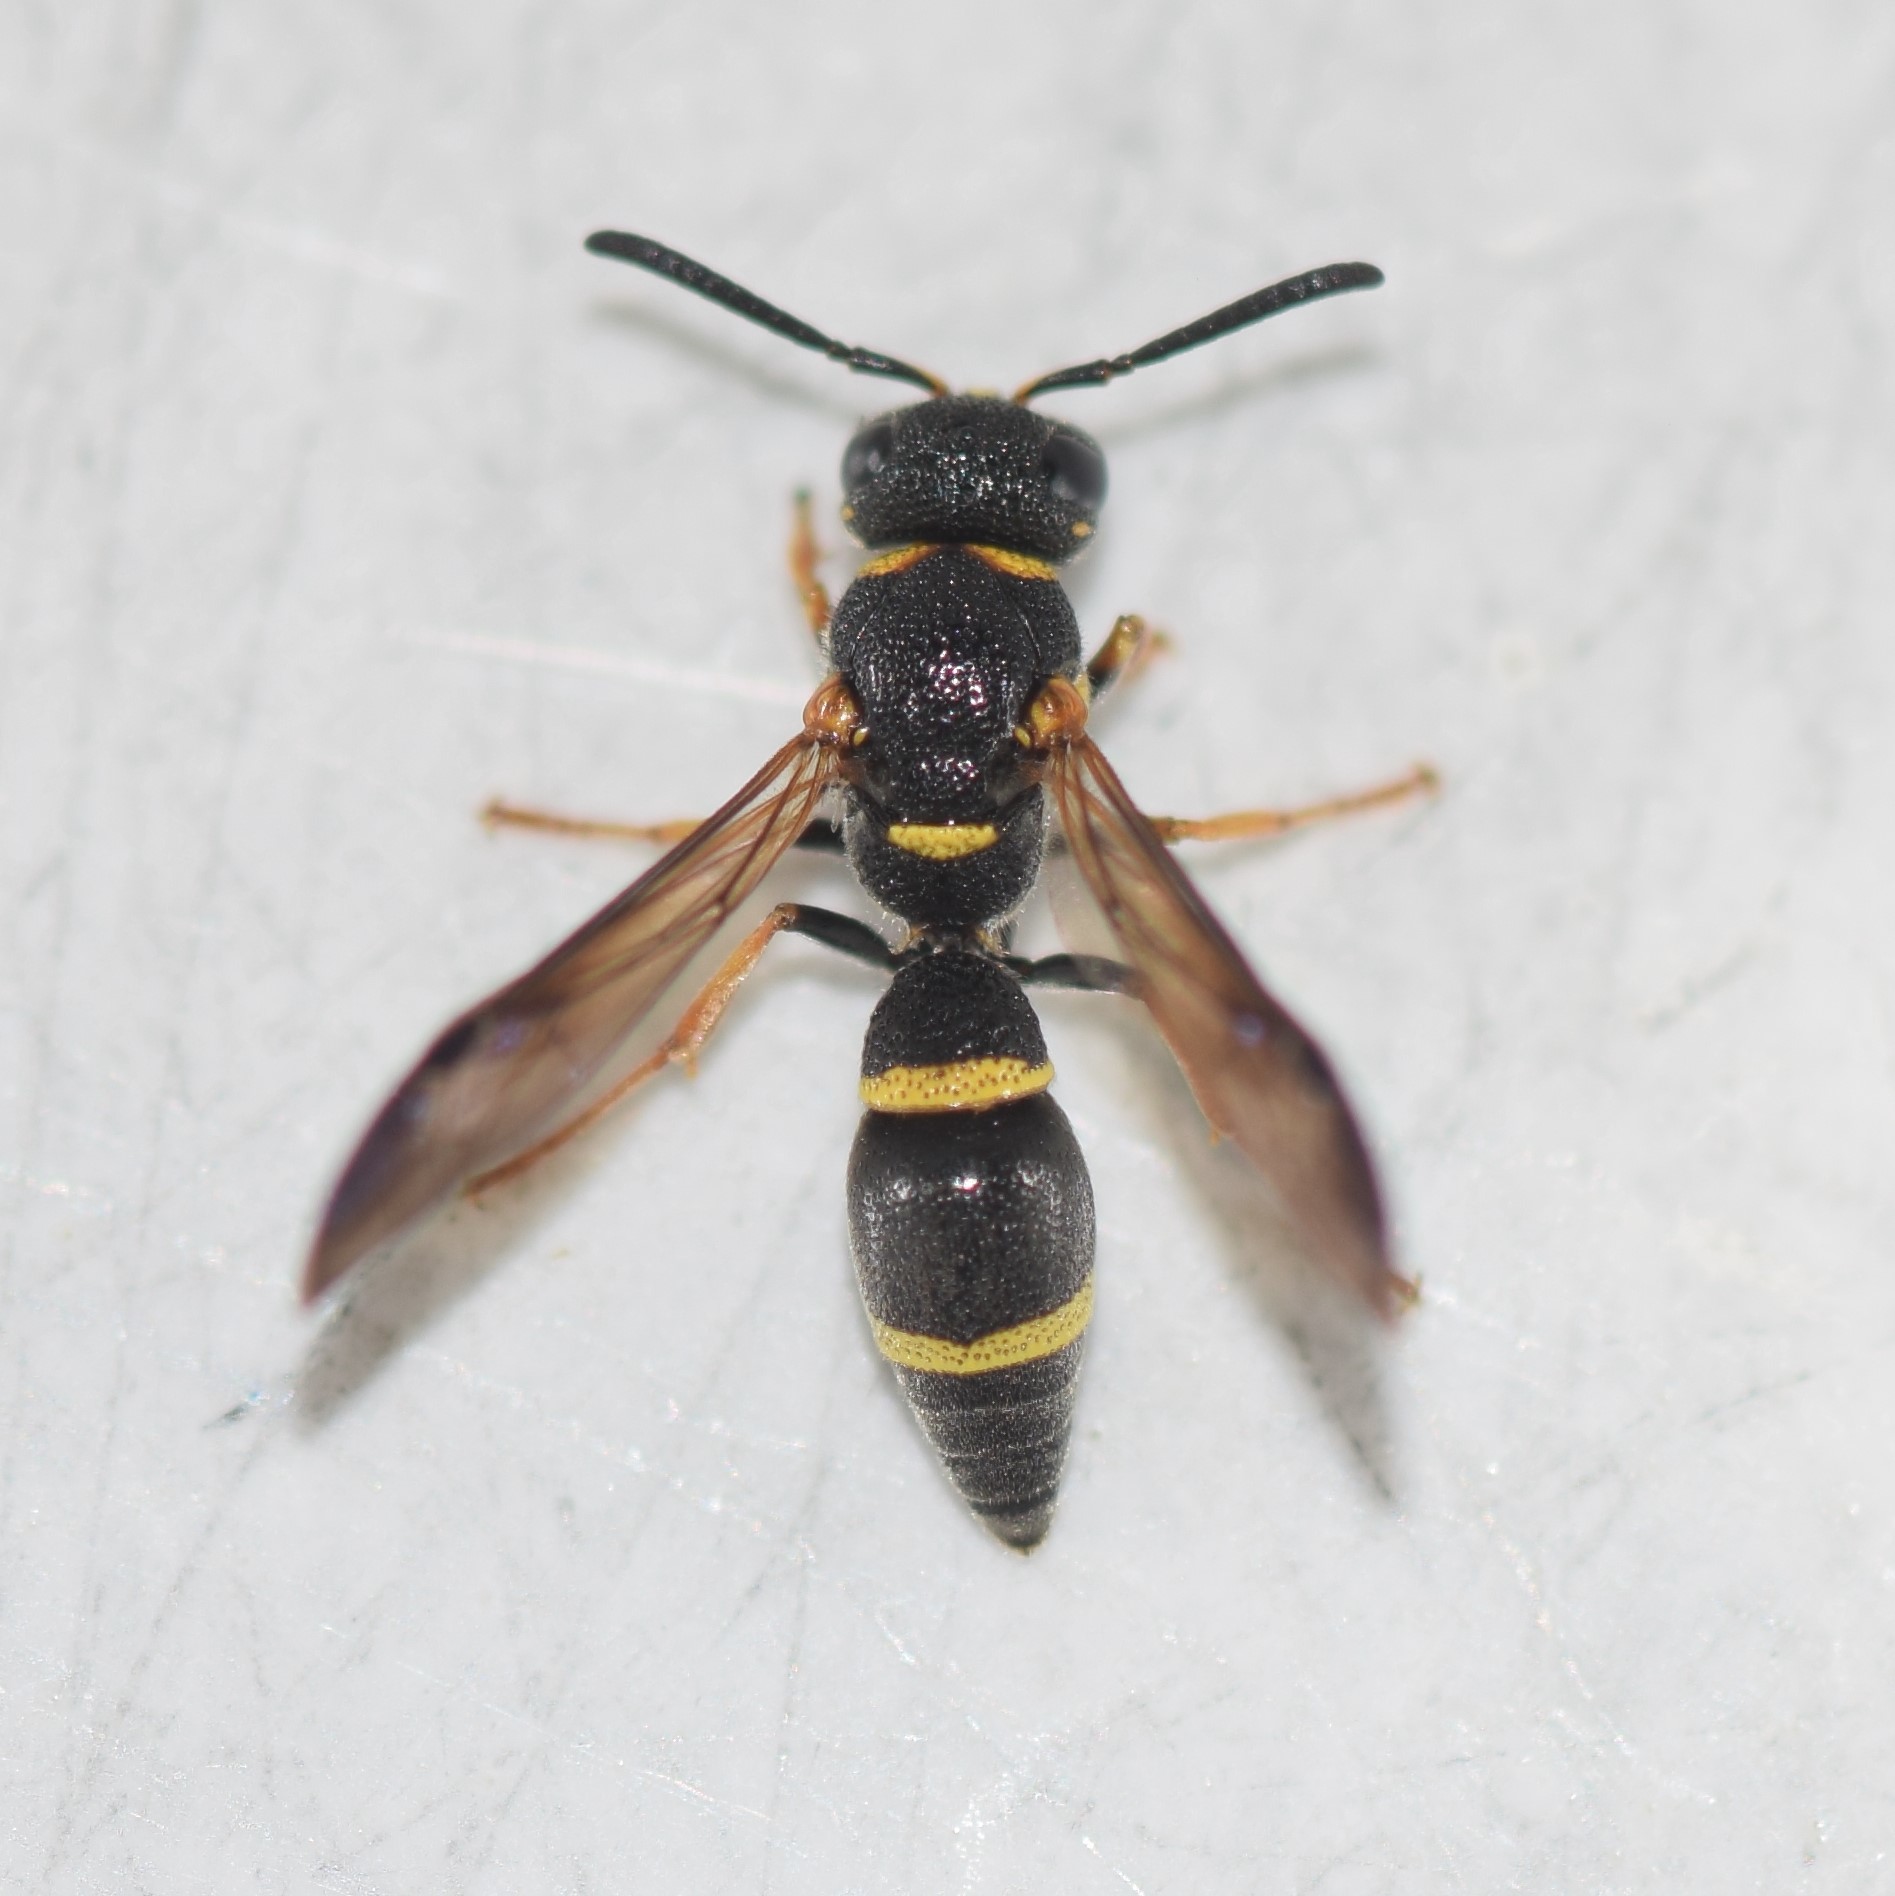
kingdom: Animalia
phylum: Arthropoda
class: Insecta
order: Hymenoptera
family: Eumenidae
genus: Parancistrocerus
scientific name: Parancistrocerus perennis
